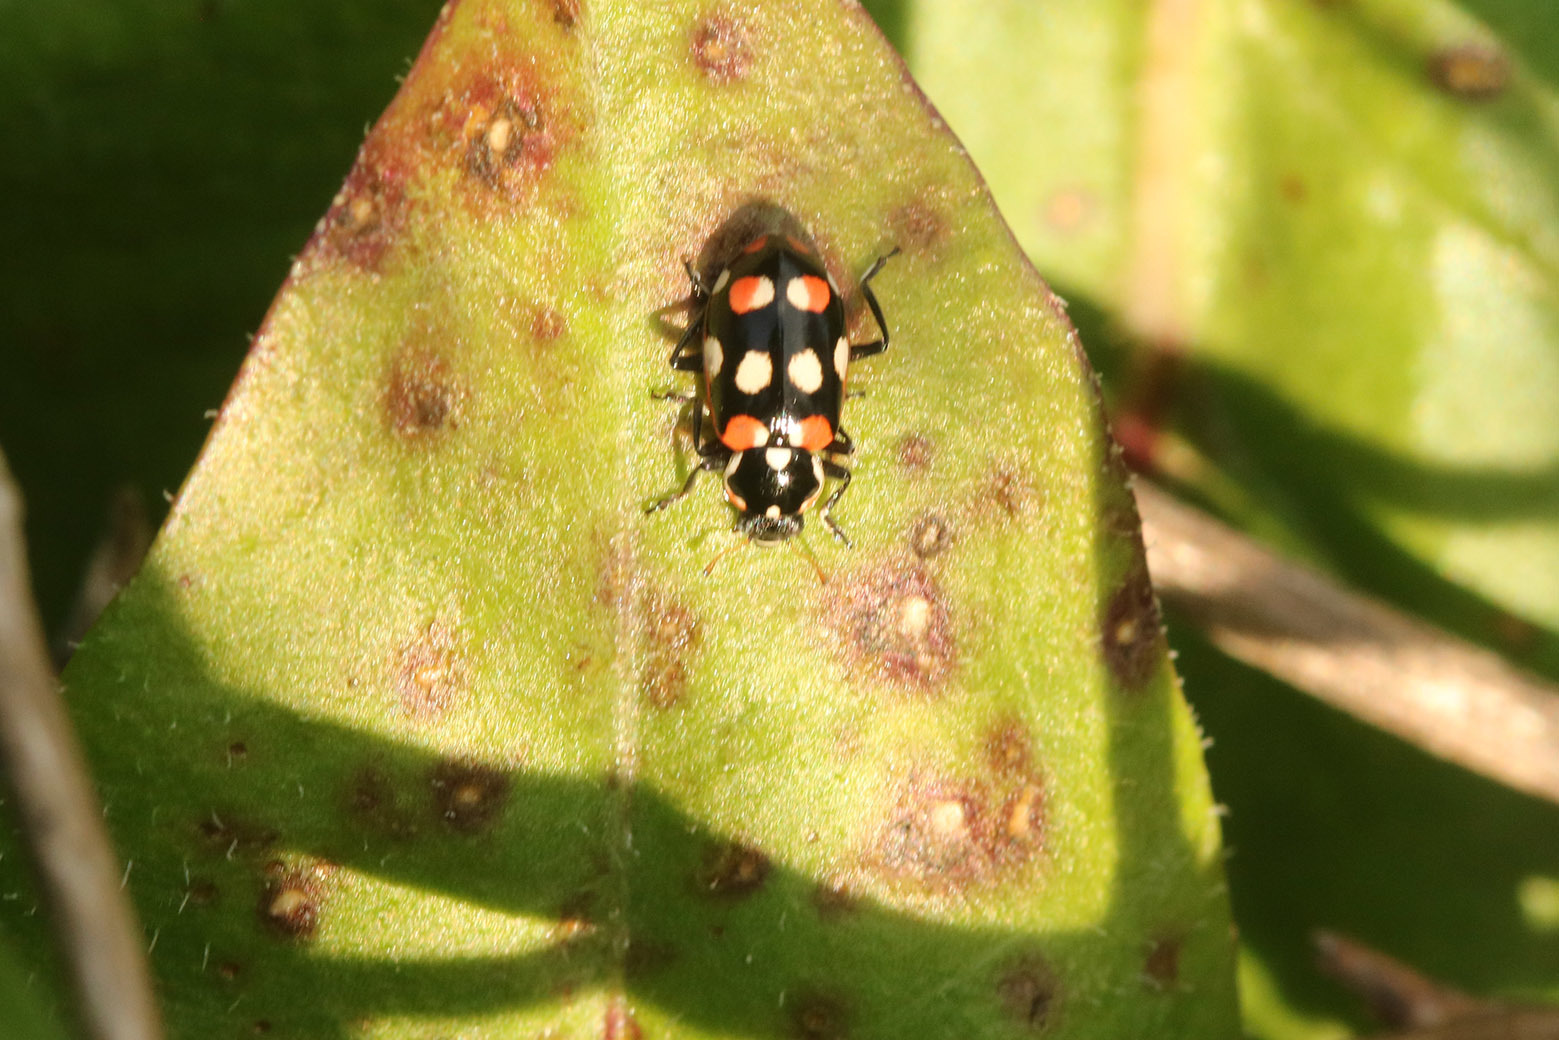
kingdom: Animalia
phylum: Arthropoda
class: Insecta
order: Coleoptera
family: Coccinellidae
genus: Eriopis
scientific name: Eriopis connexa
